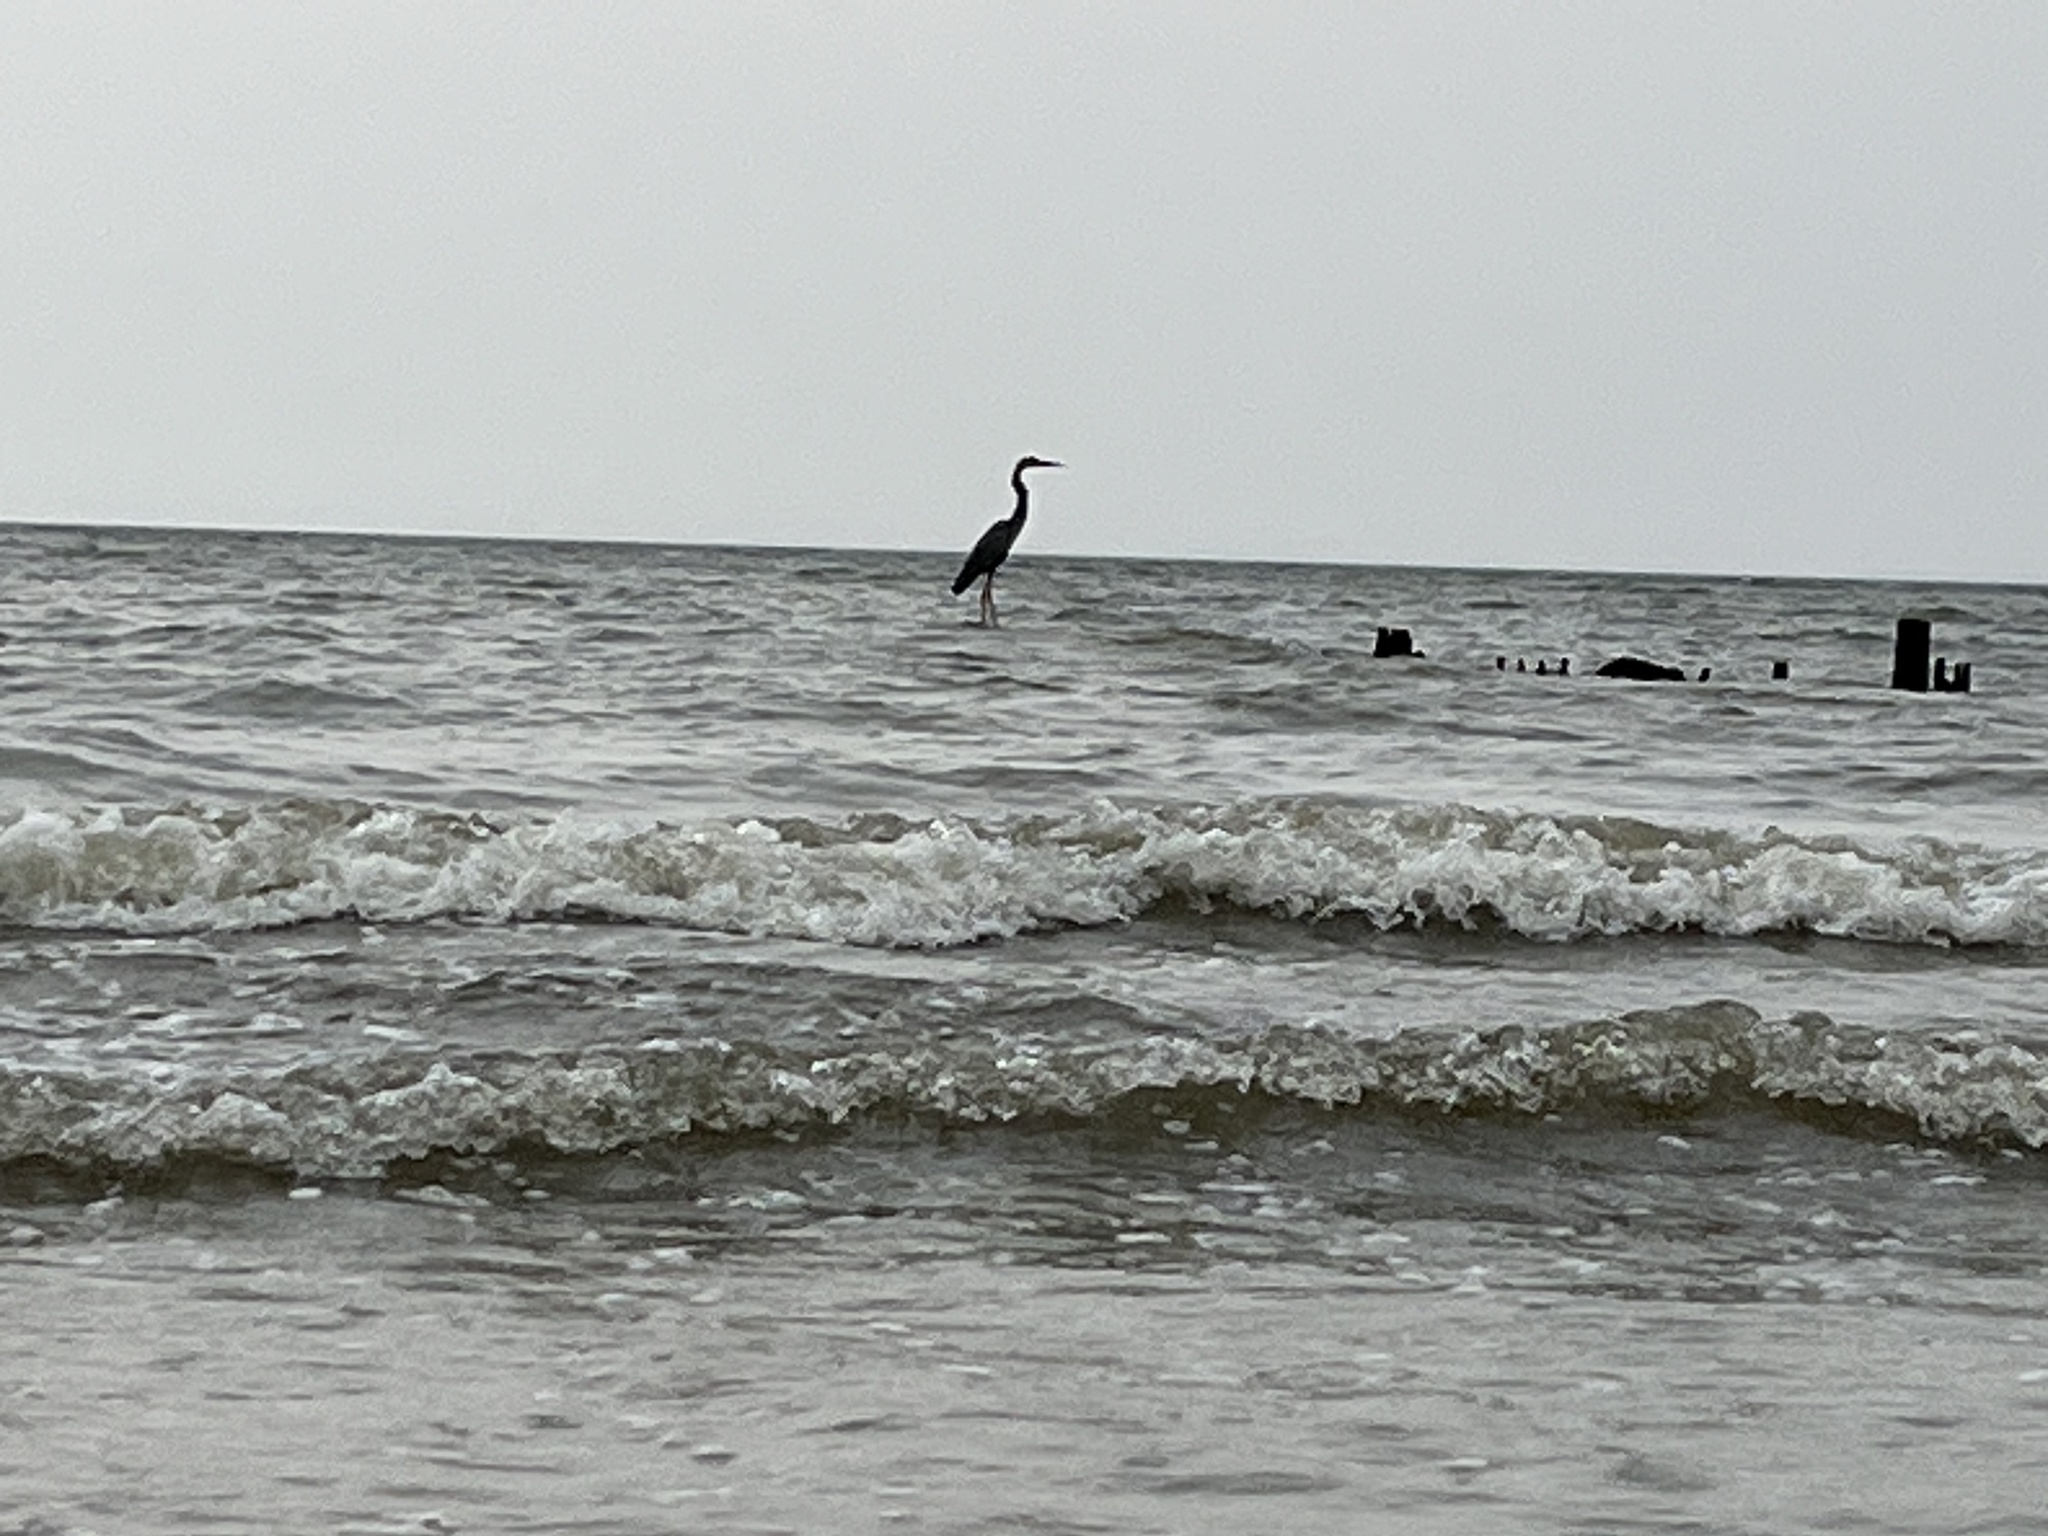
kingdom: Animalia
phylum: Chordata
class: Aves
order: Pelecaniformes
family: Ardeidae
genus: Ardea
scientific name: Ardea herodias
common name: Great blue heron
